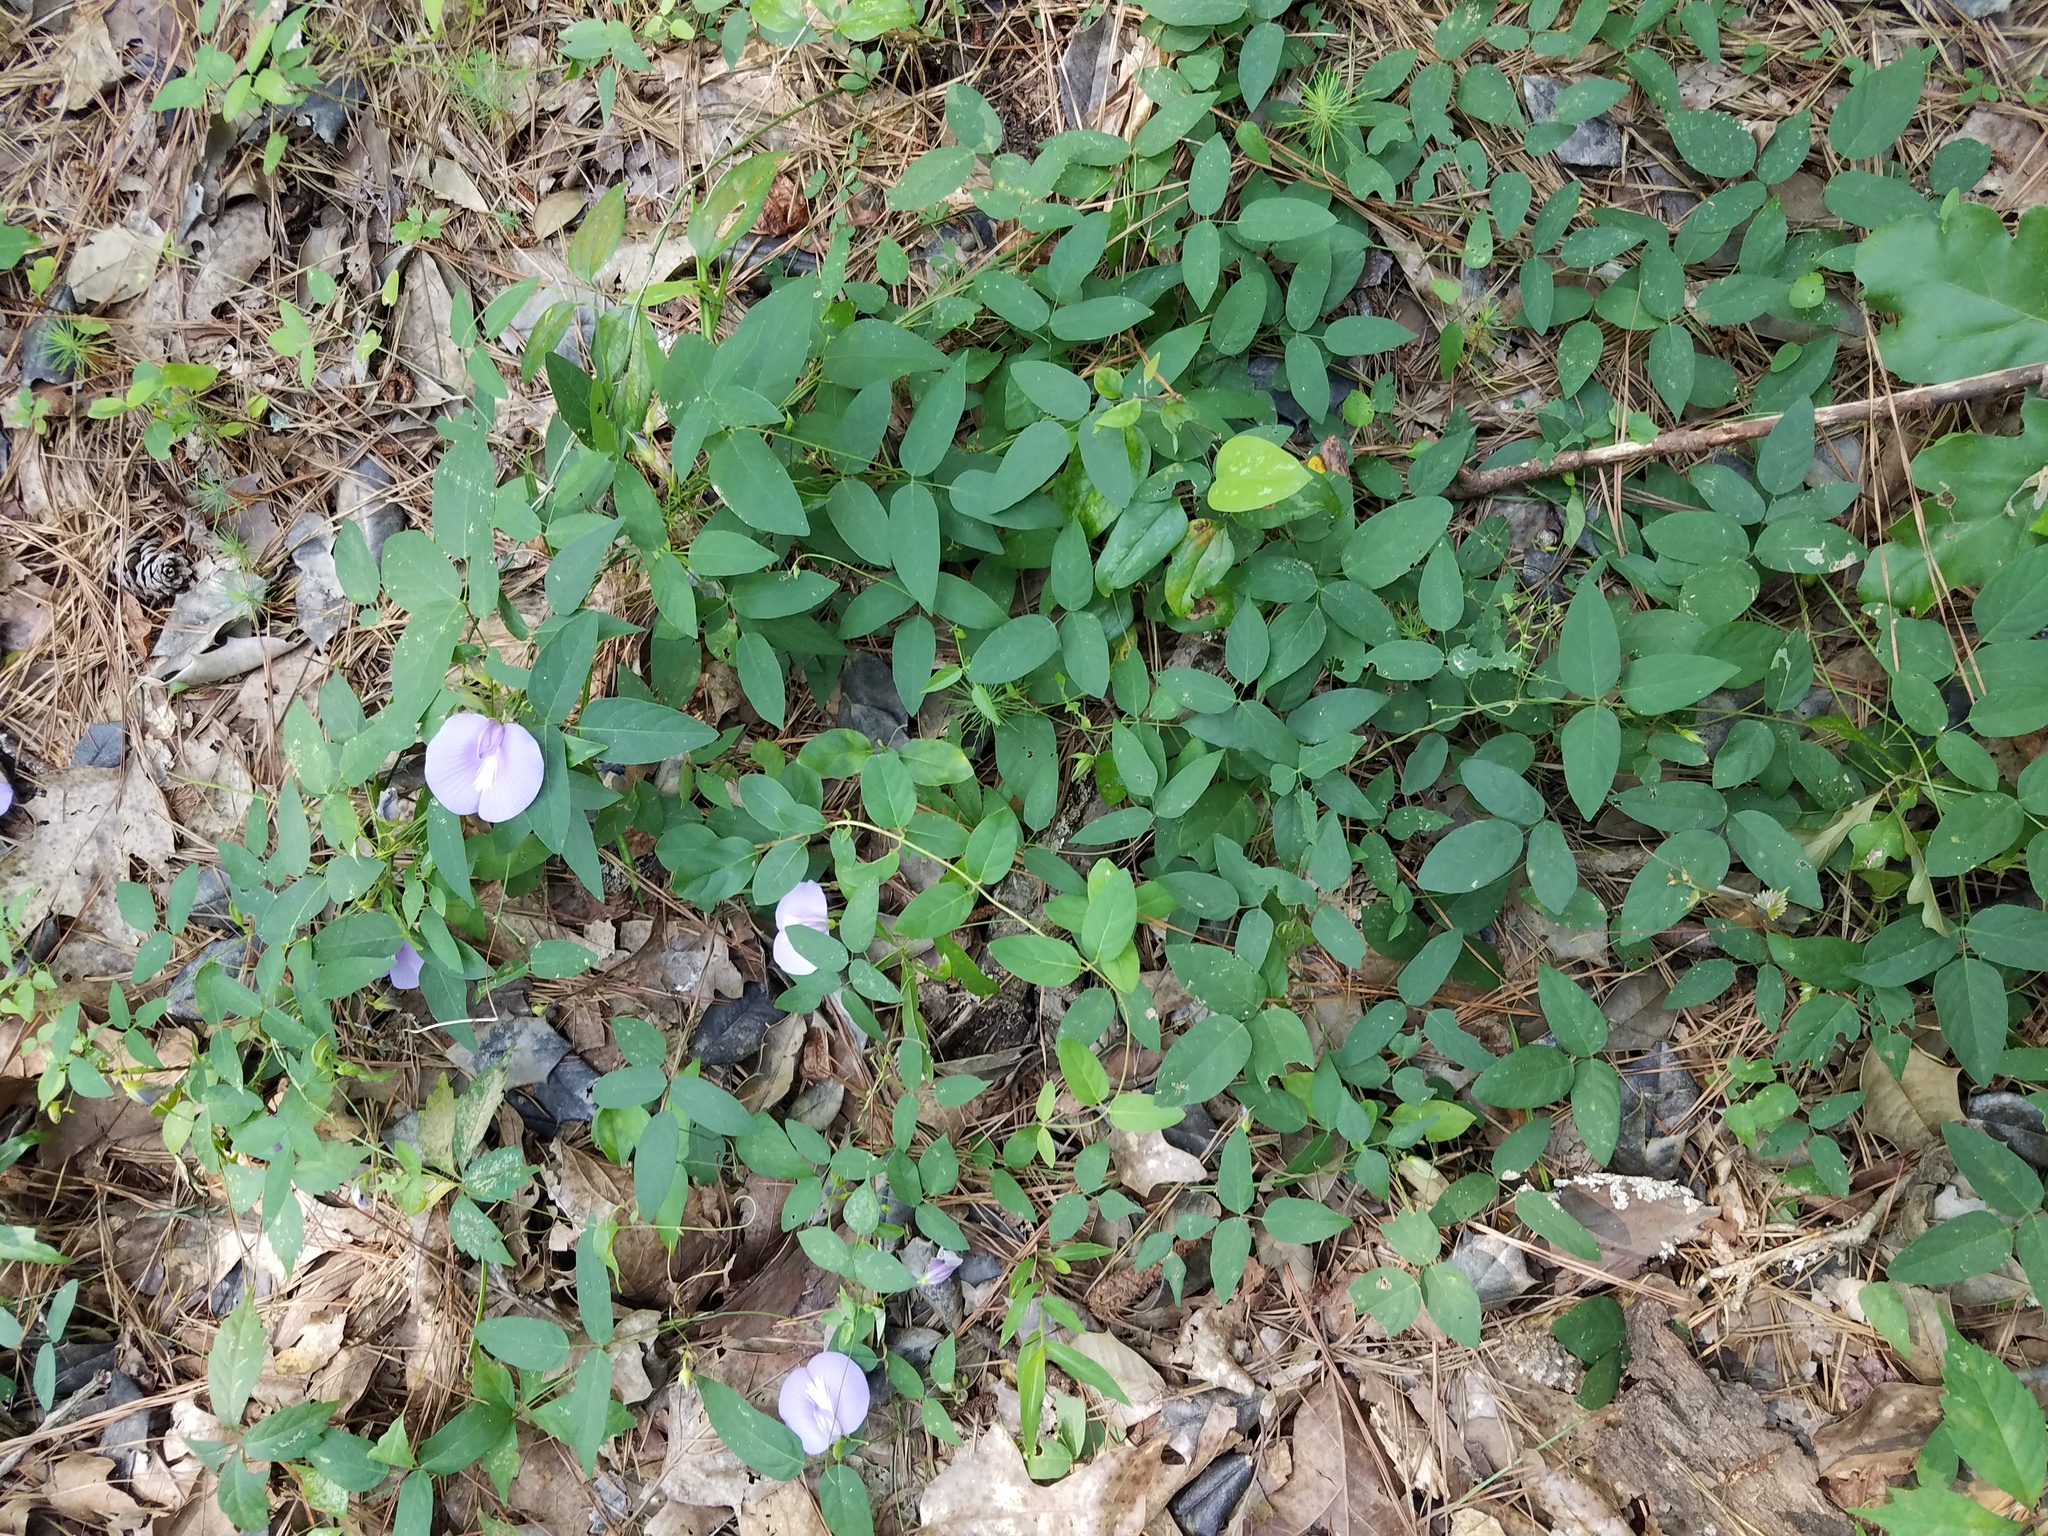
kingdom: Plantae
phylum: Tracheophyta
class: Magnoliopsida
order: Fabales
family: Fabaceae
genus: Centrosema
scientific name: Centrosema virginianum
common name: Butterfly-pea
